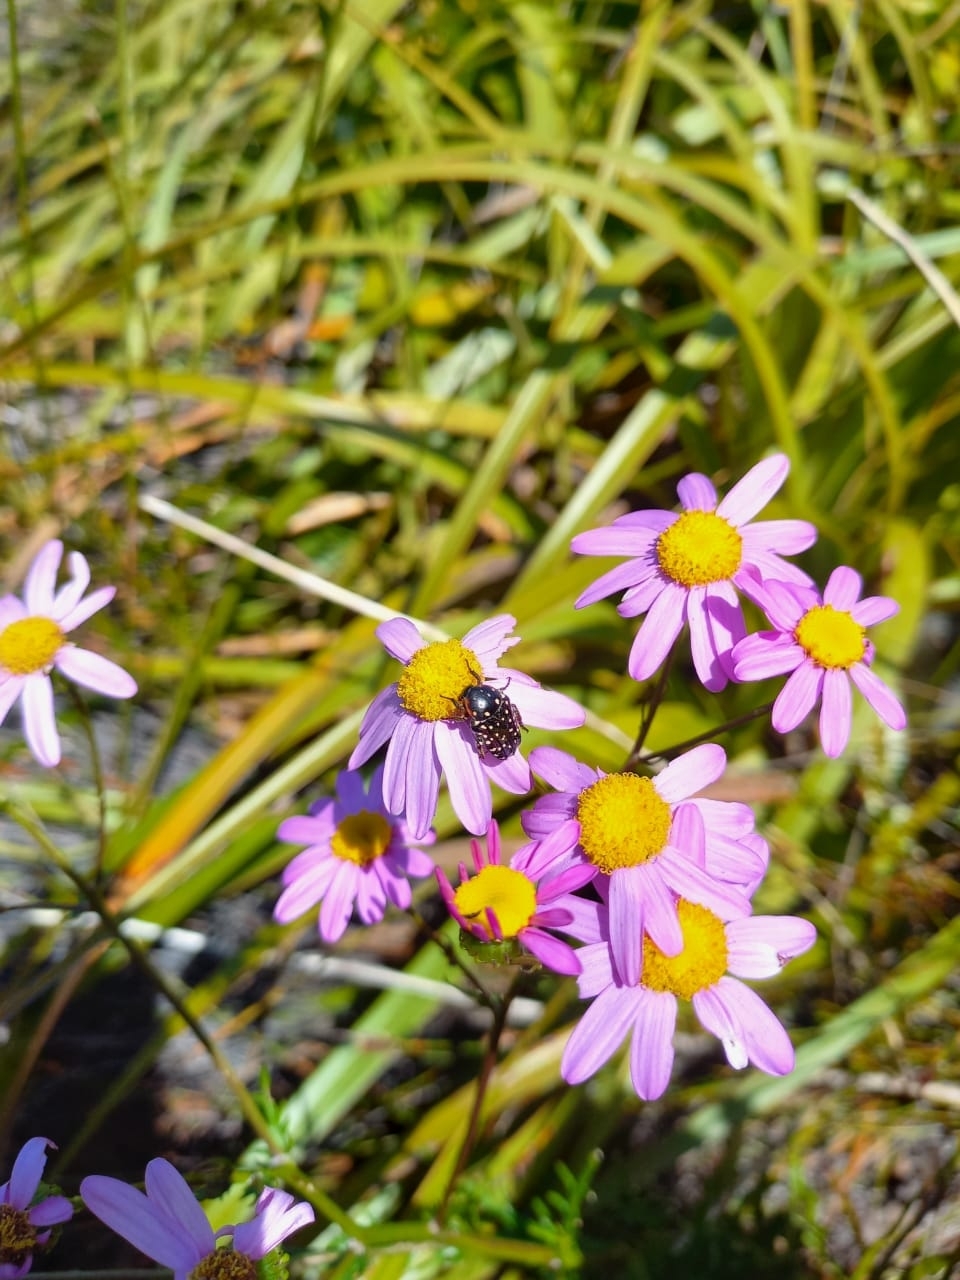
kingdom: Animalia
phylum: Arthropoda
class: Insecta
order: Coleoptera
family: Scarabaeidae
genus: Oxythyrea
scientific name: Oxythyrea
